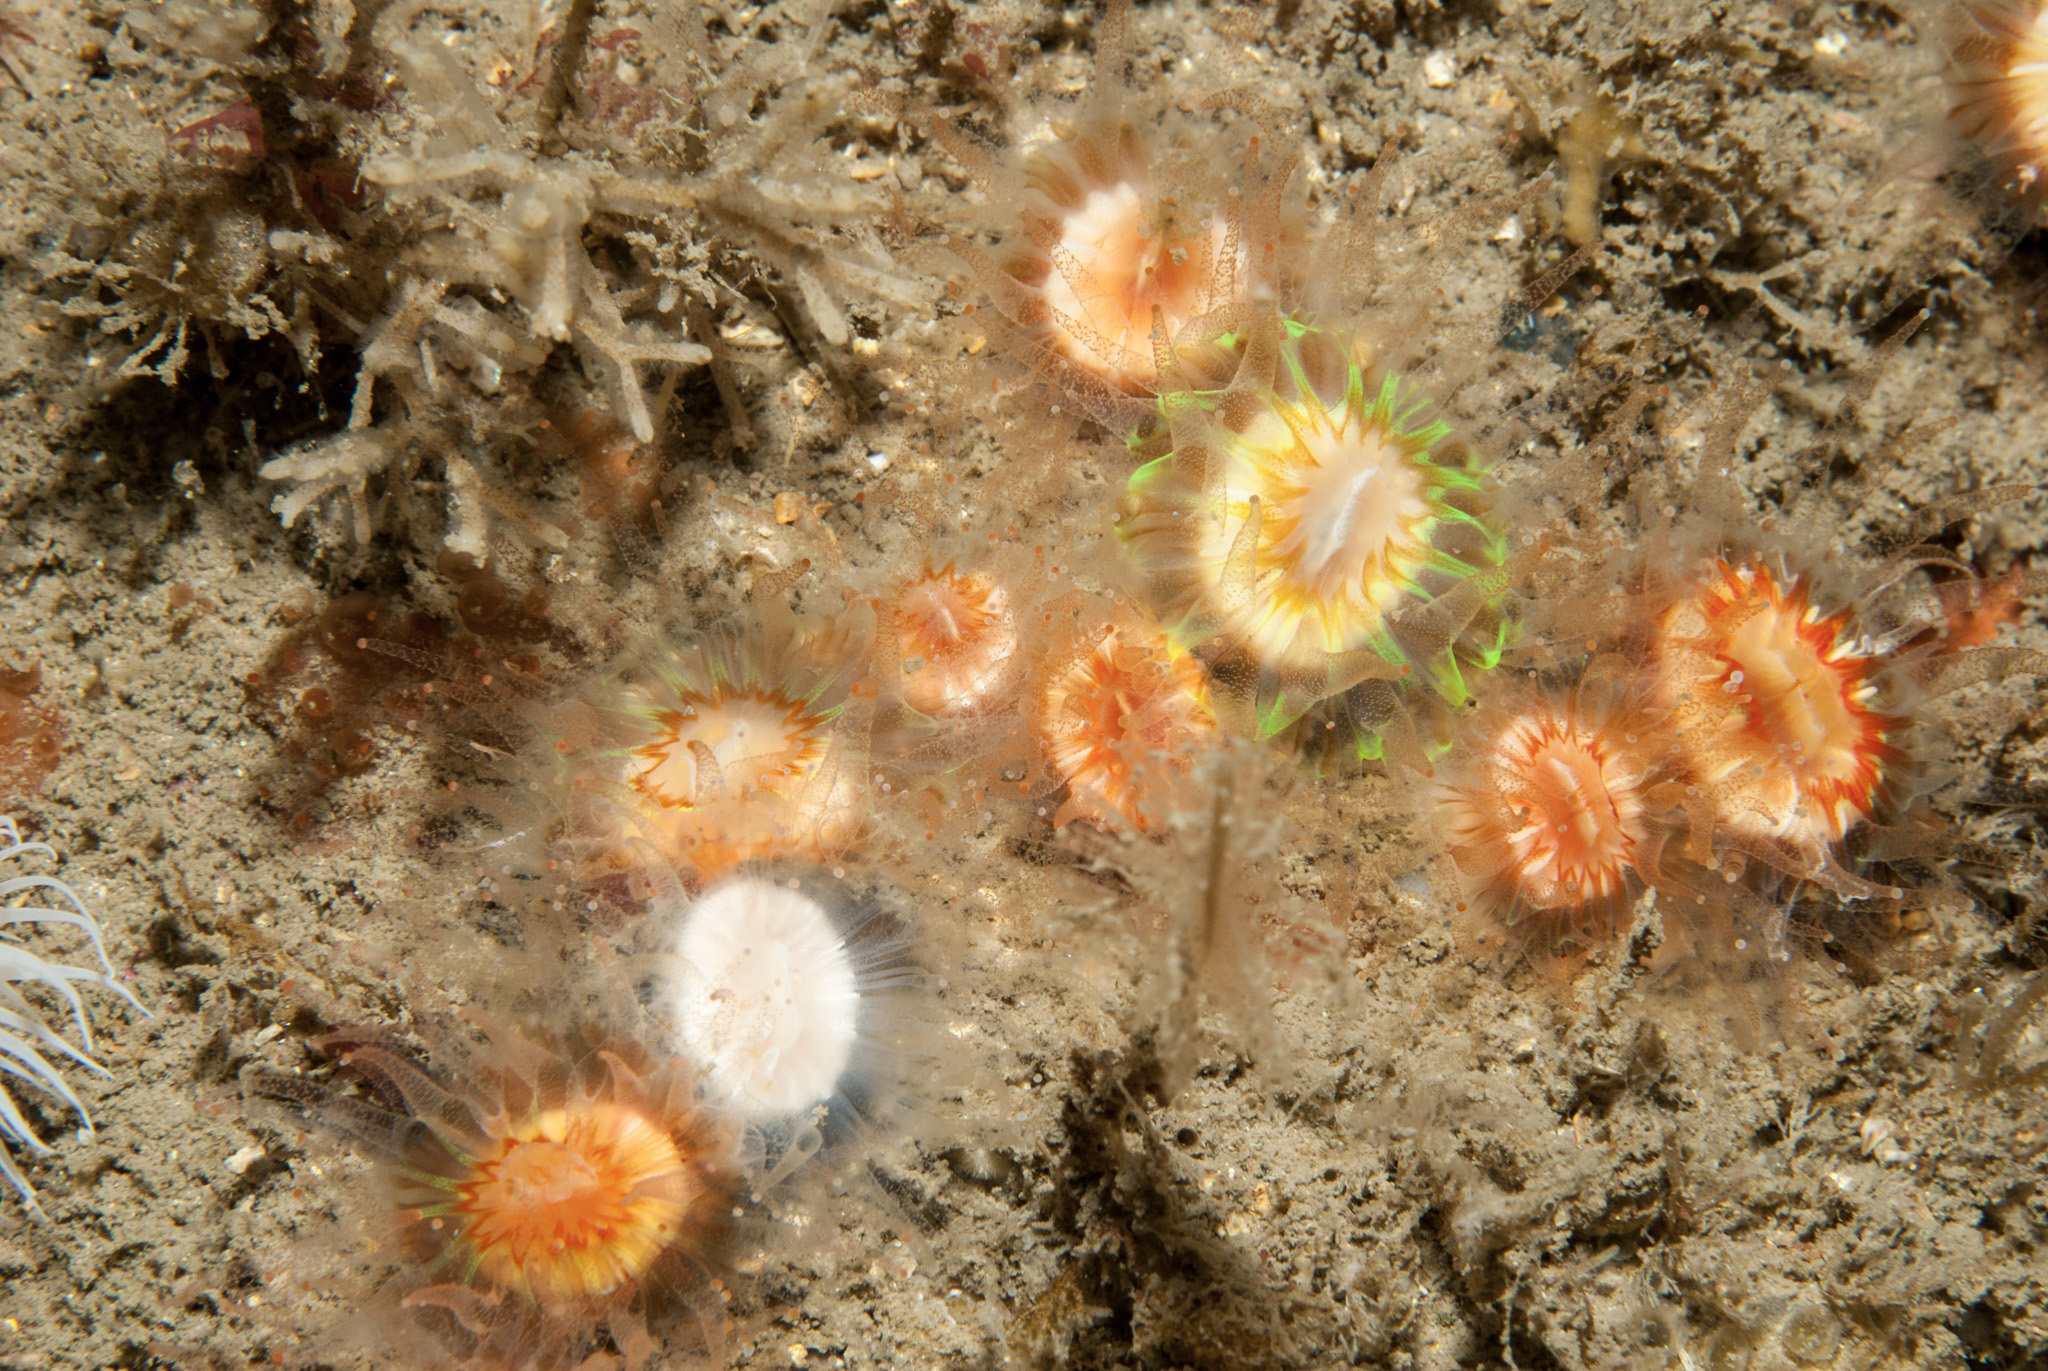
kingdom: Animalia
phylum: Cnidaria
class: Anthozoa
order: Scleractinia
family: Caryophylliidae
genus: Caryophyllia
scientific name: Caryophyllia smithii
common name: Devonshire cup coral
